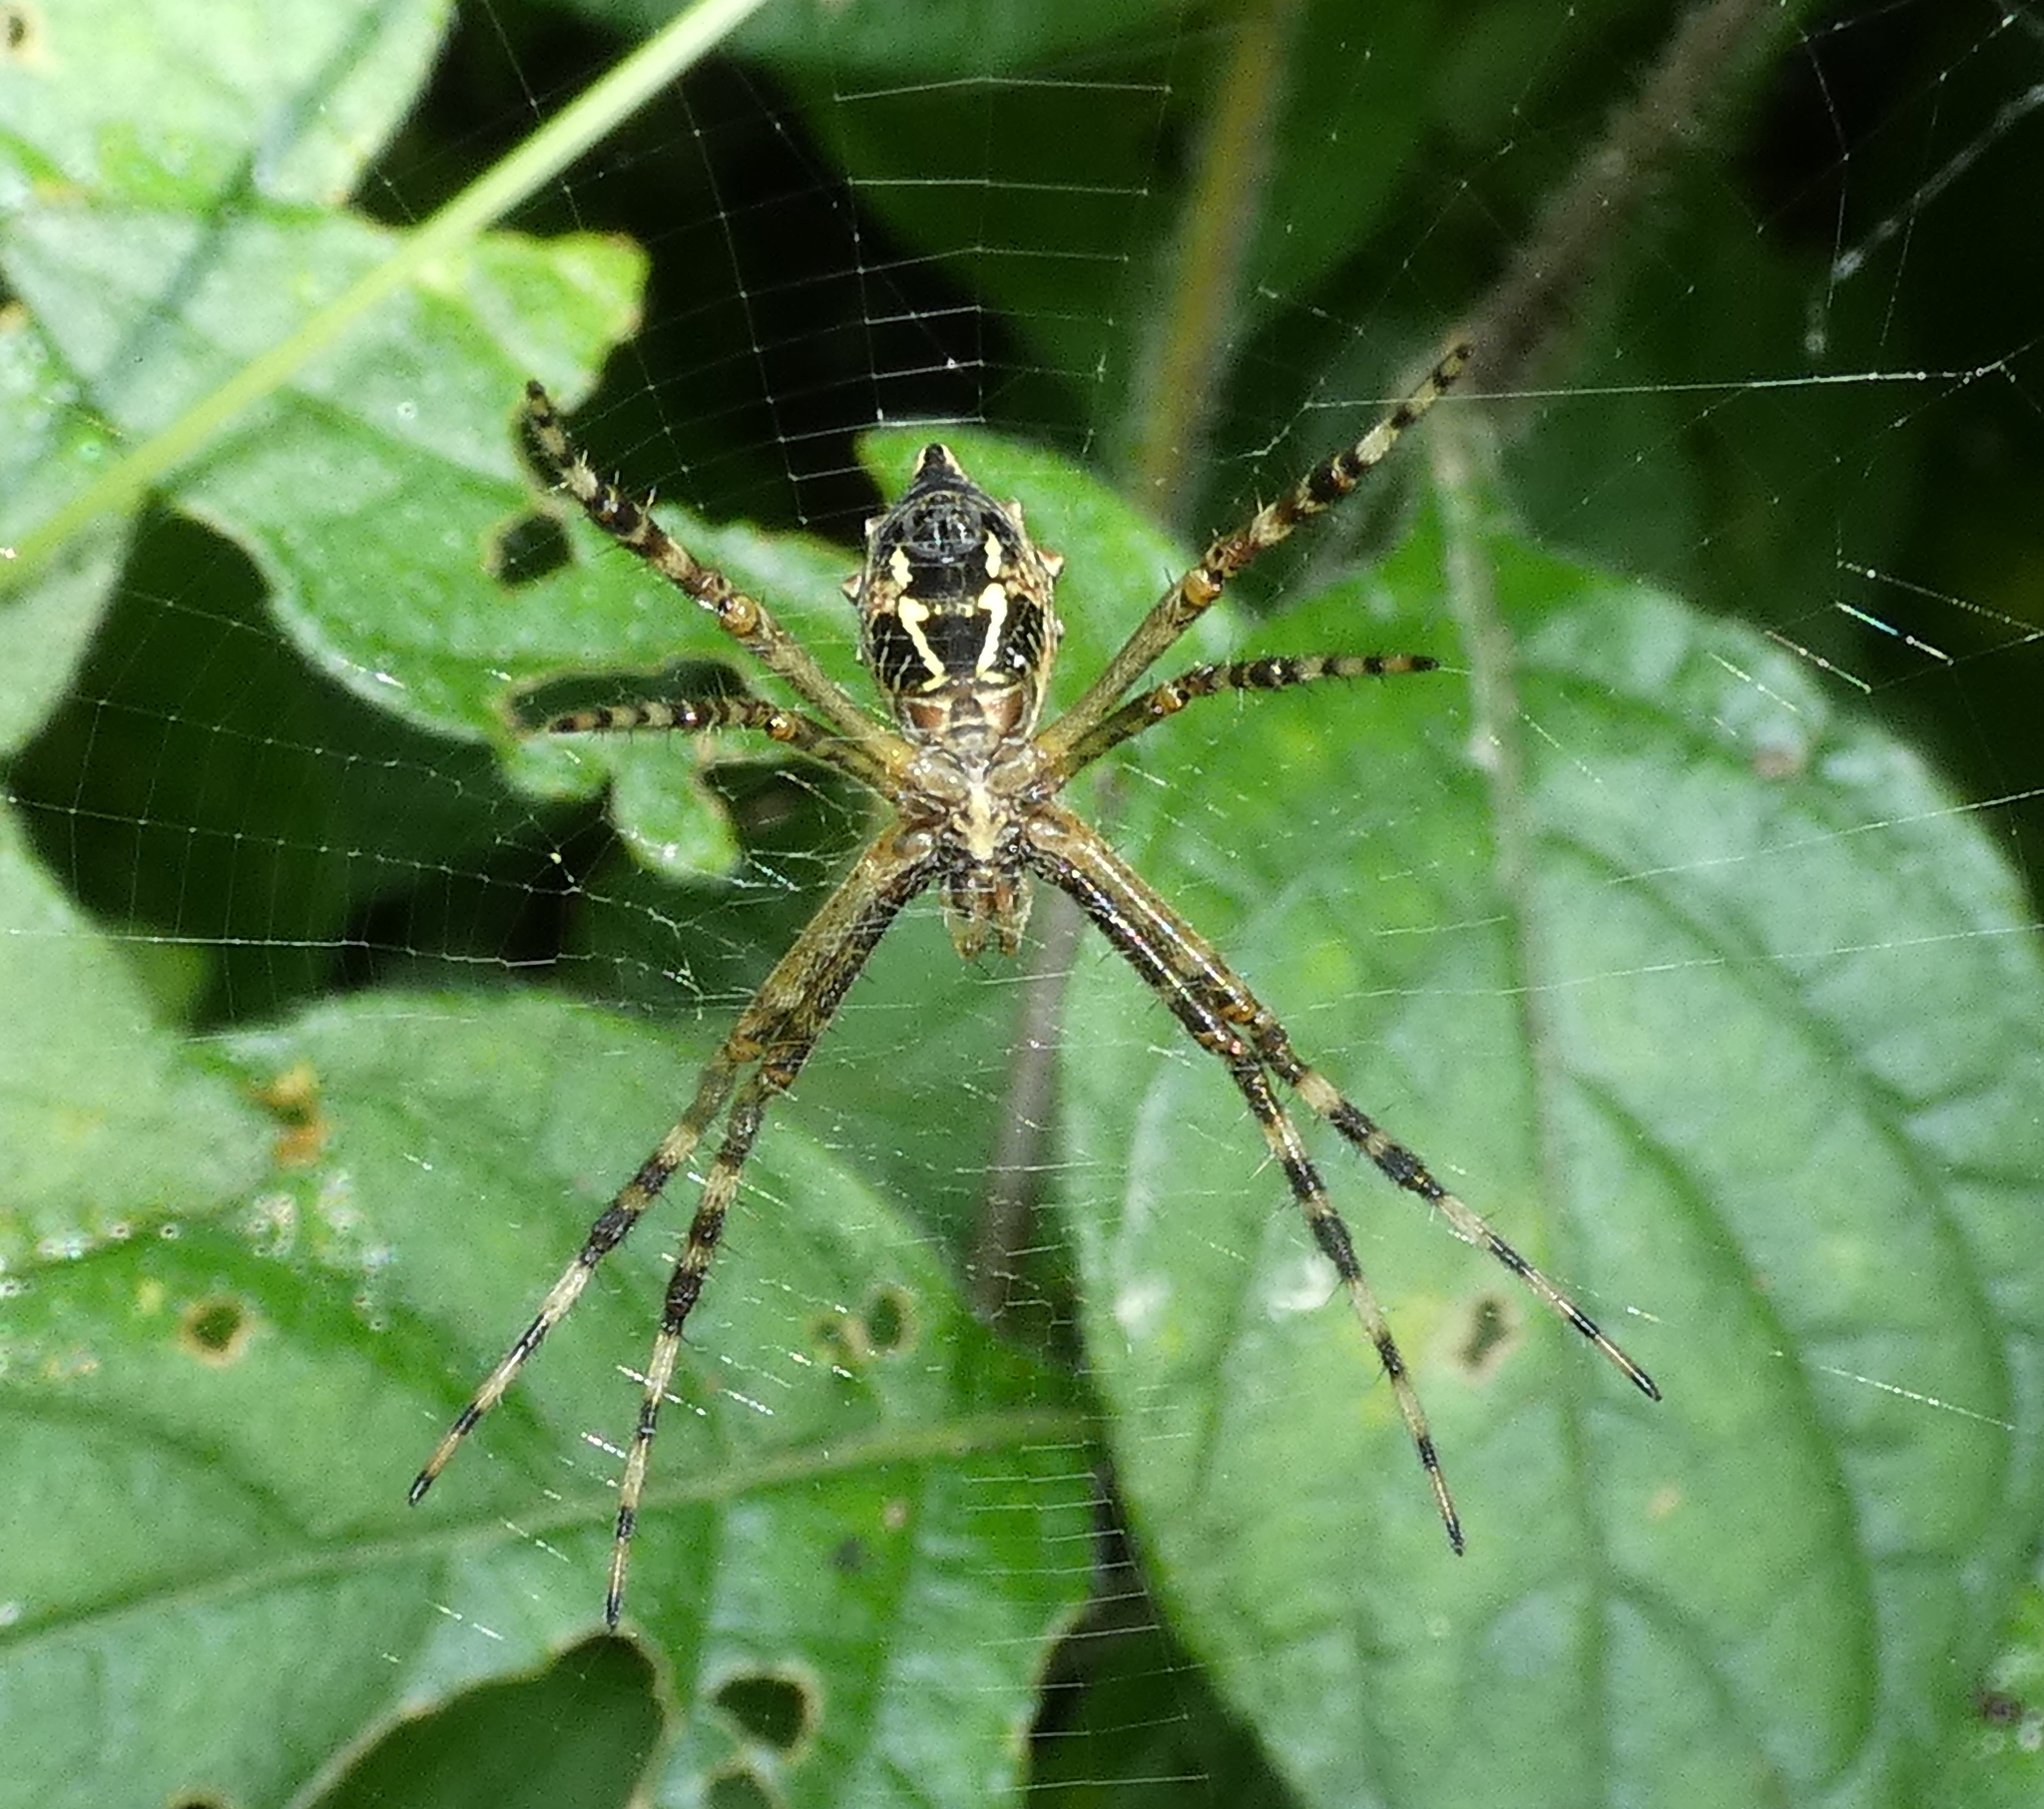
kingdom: Animalia
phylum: Arthropoda
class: Arachnida
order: Araneae
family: Araneidae
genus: Argiope
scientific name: Argiope argentata
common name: Orb weavers
